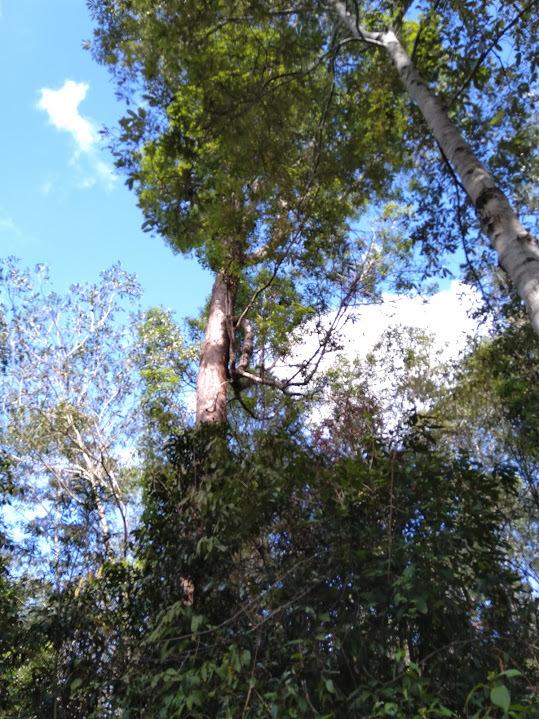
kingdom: Plantae
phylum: Tracheophyta
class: Magnoliopsida
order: Sapindales
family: Rutaceae
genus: Flindersia
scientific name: Flindersia australis
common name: Australian-teak
